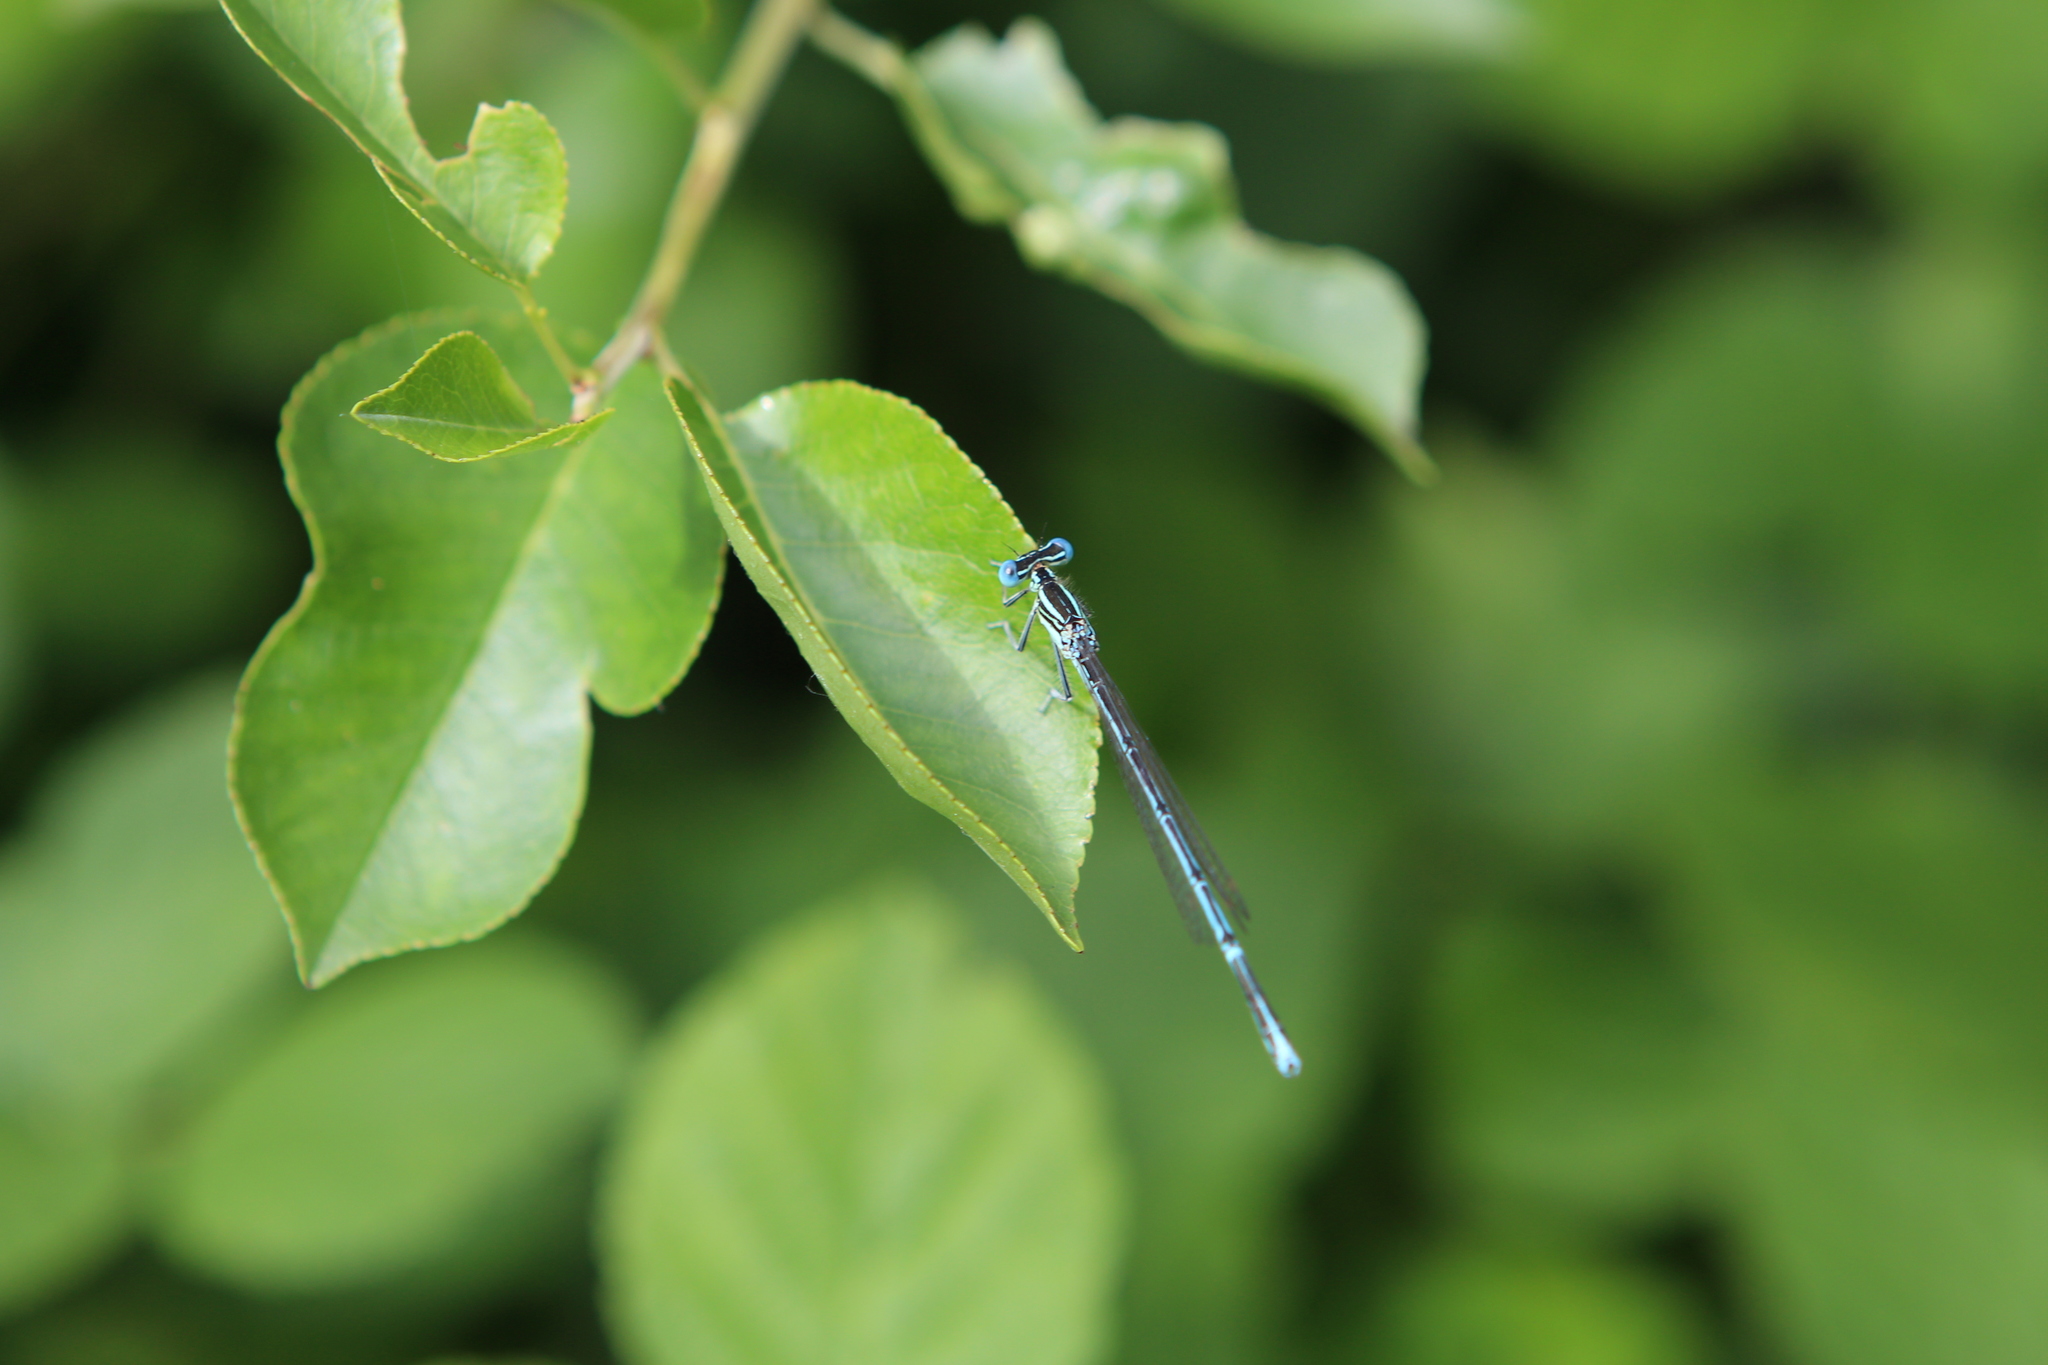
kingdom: Animalia
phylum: Arthropoda
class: Insecta
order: Odonata
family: Platycnemididae
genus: Platycnemis
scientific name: Platycnemis pennipes
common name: White-legged damselfly
